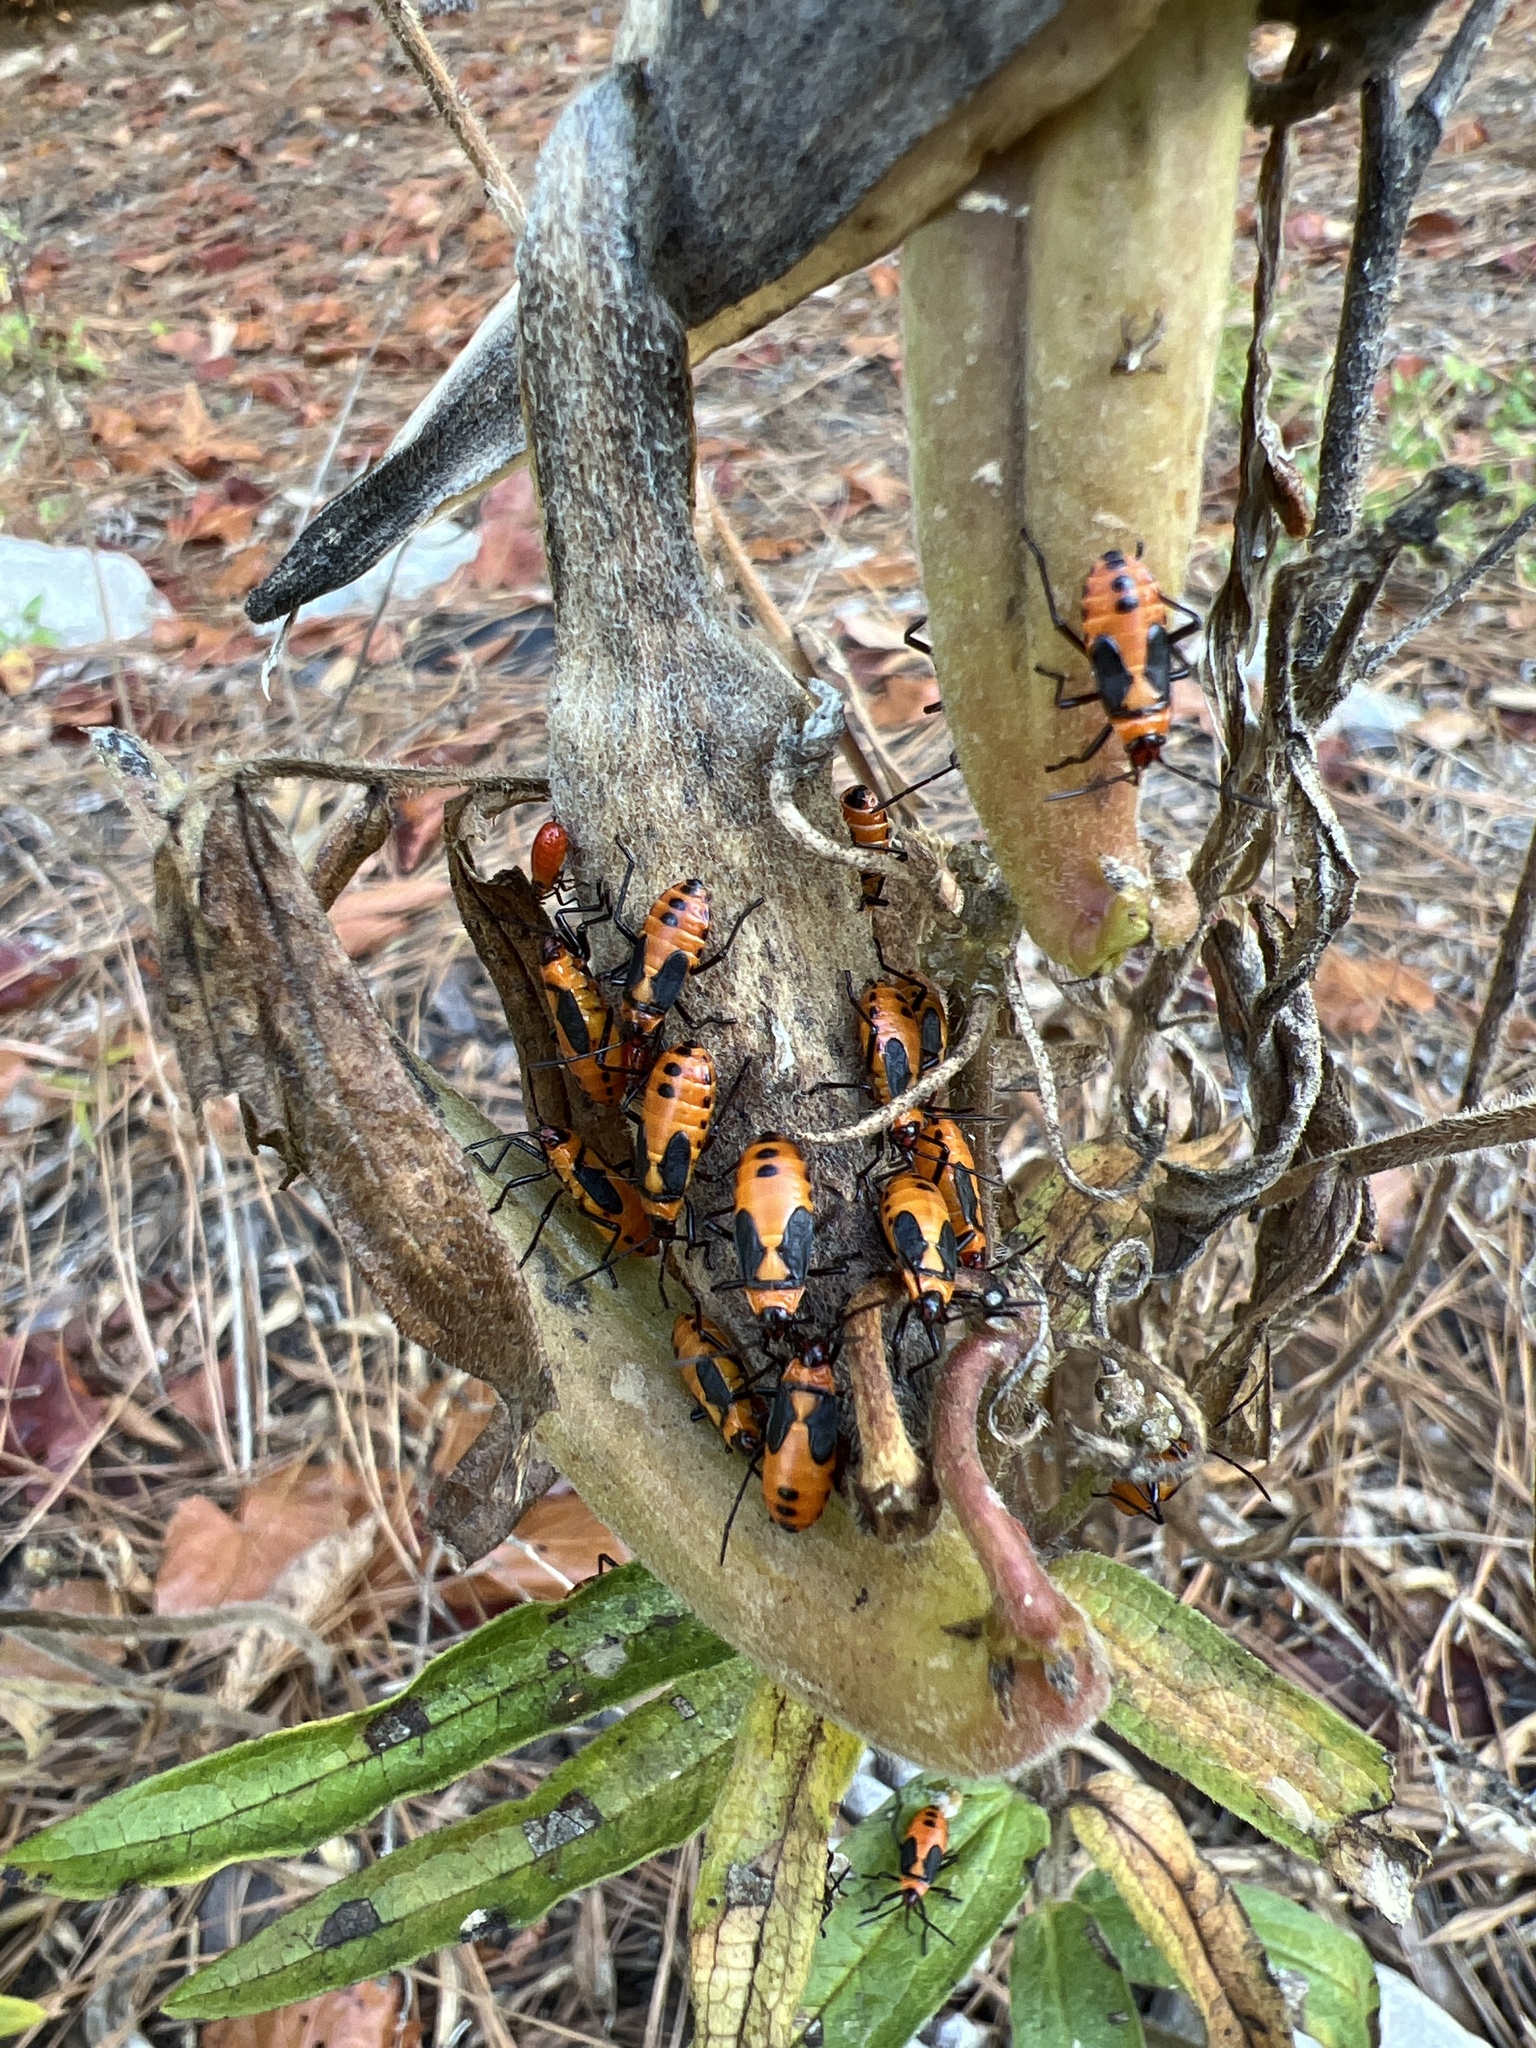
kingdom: Animalia
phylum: Arthropoda
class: Insecta
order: Hemiptera
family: Lygaeidae
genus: Oncopeltus
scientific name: Oncopeltus fasciatus
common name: Large milkweed bug
